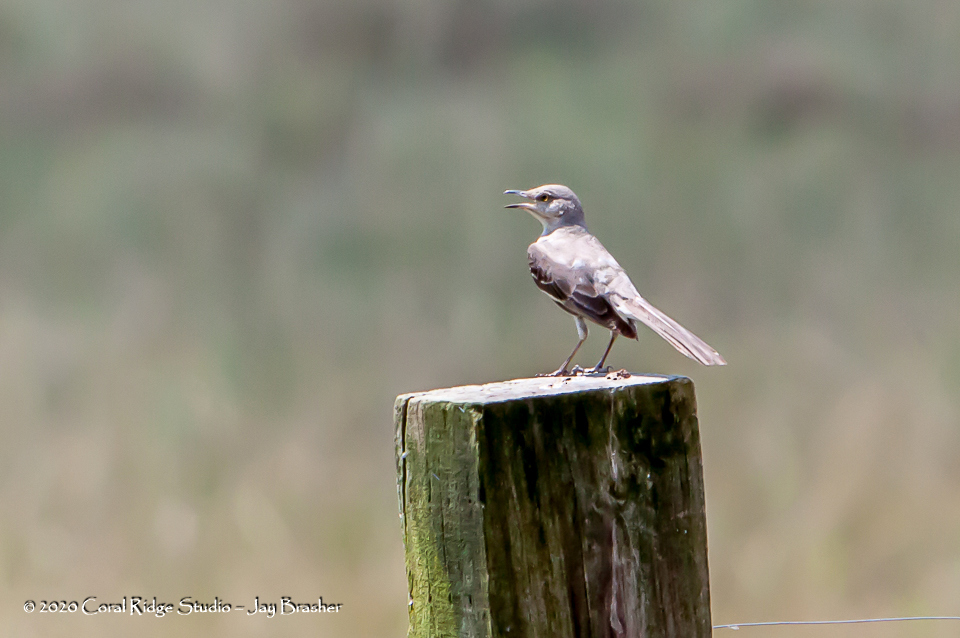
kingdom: Animalia
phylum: Chordata
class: Aves
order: Passeriformes
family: Mimidae
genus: Mimus
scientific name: Mimus polyglottos
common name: Northern mockingbird
